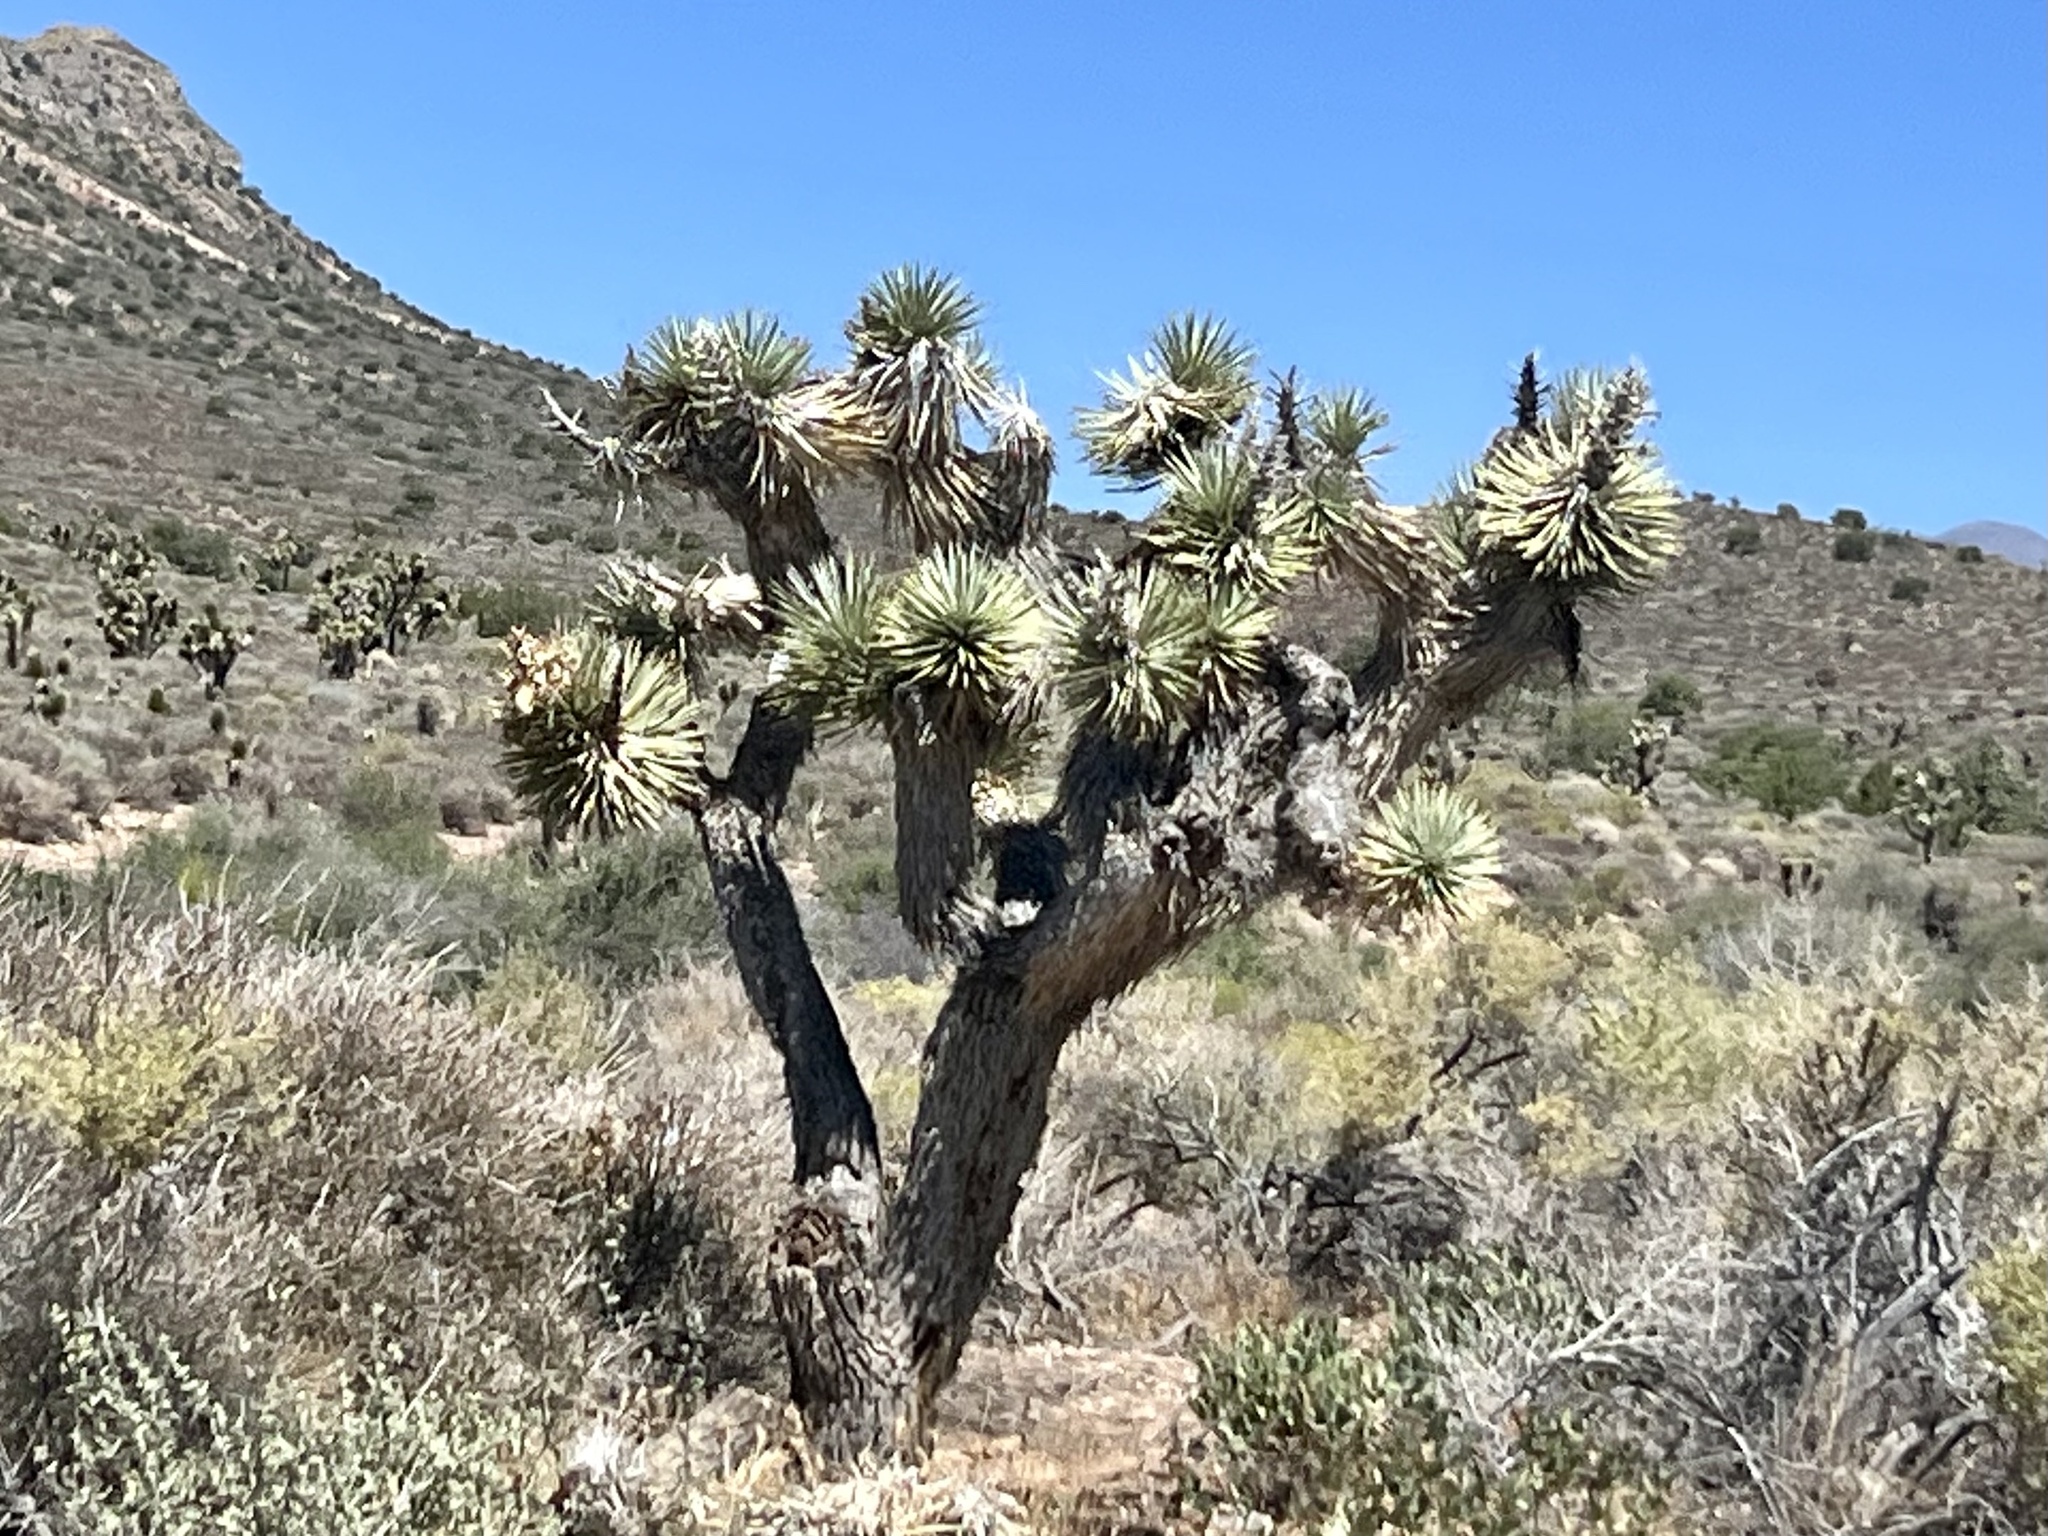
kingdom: Plantae
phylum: Tracheophyta
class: Liliopsida
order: Asparagales
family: Asparagaceae
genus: Yucca
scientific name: Yucca brevifolia
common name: Joshua tree
